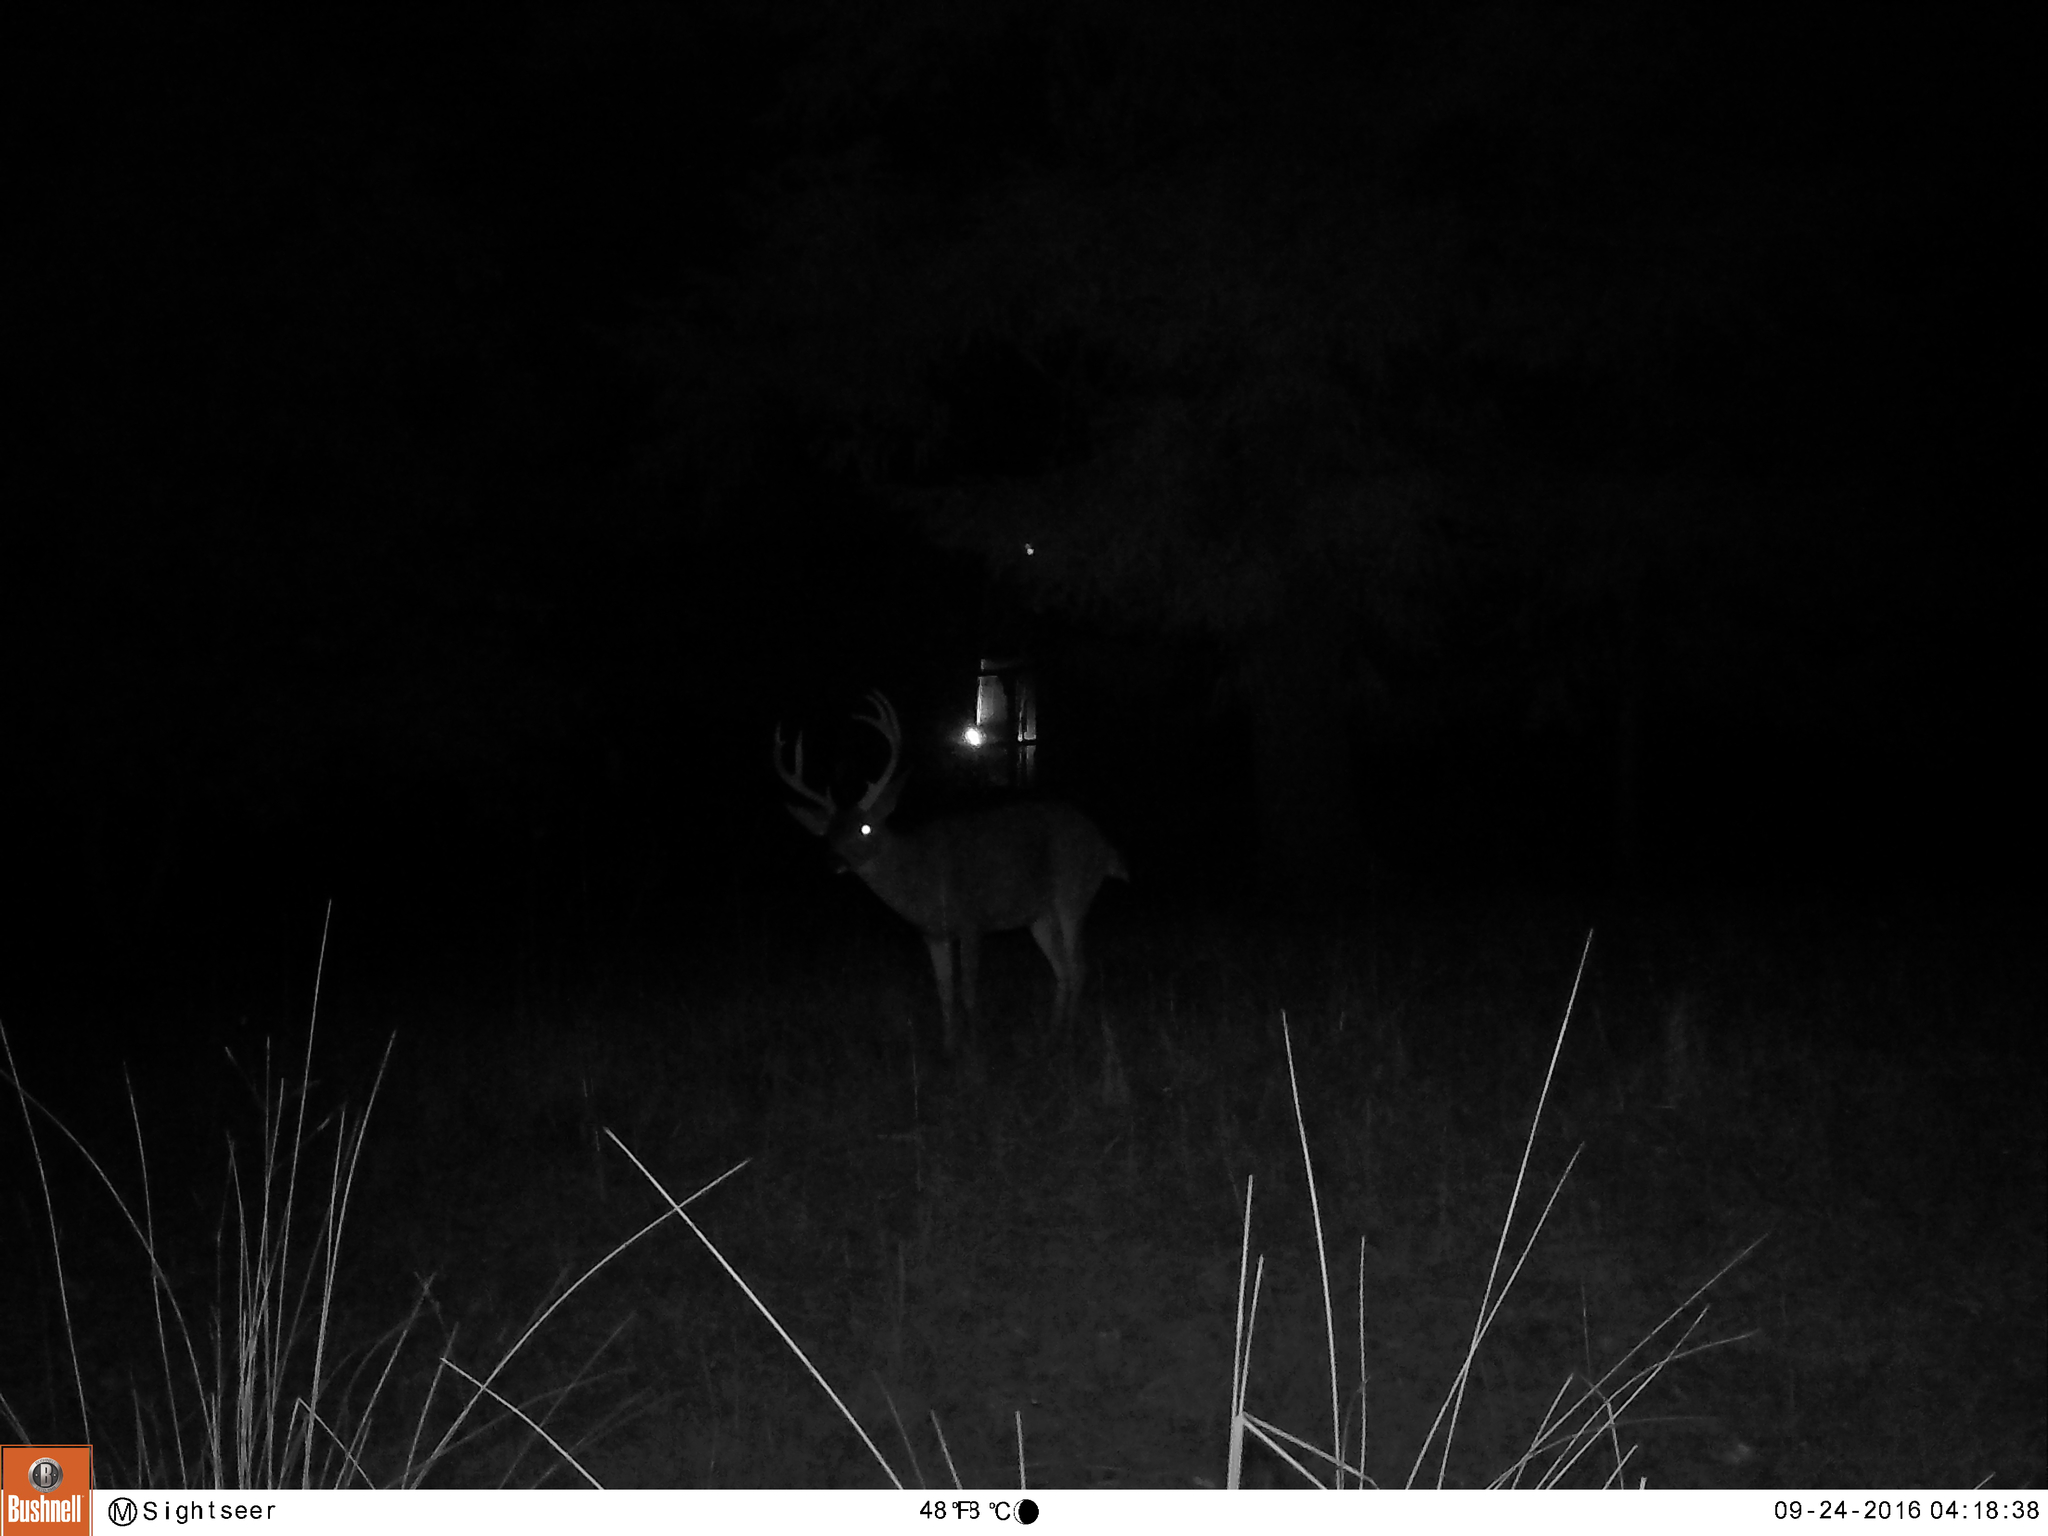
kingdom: Animalia
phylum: Chordata
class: Mammalia
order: Artiodactyla
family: Cervidae
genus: Odocoileus
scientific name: Odocoileus hemionus
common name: Mule deer
